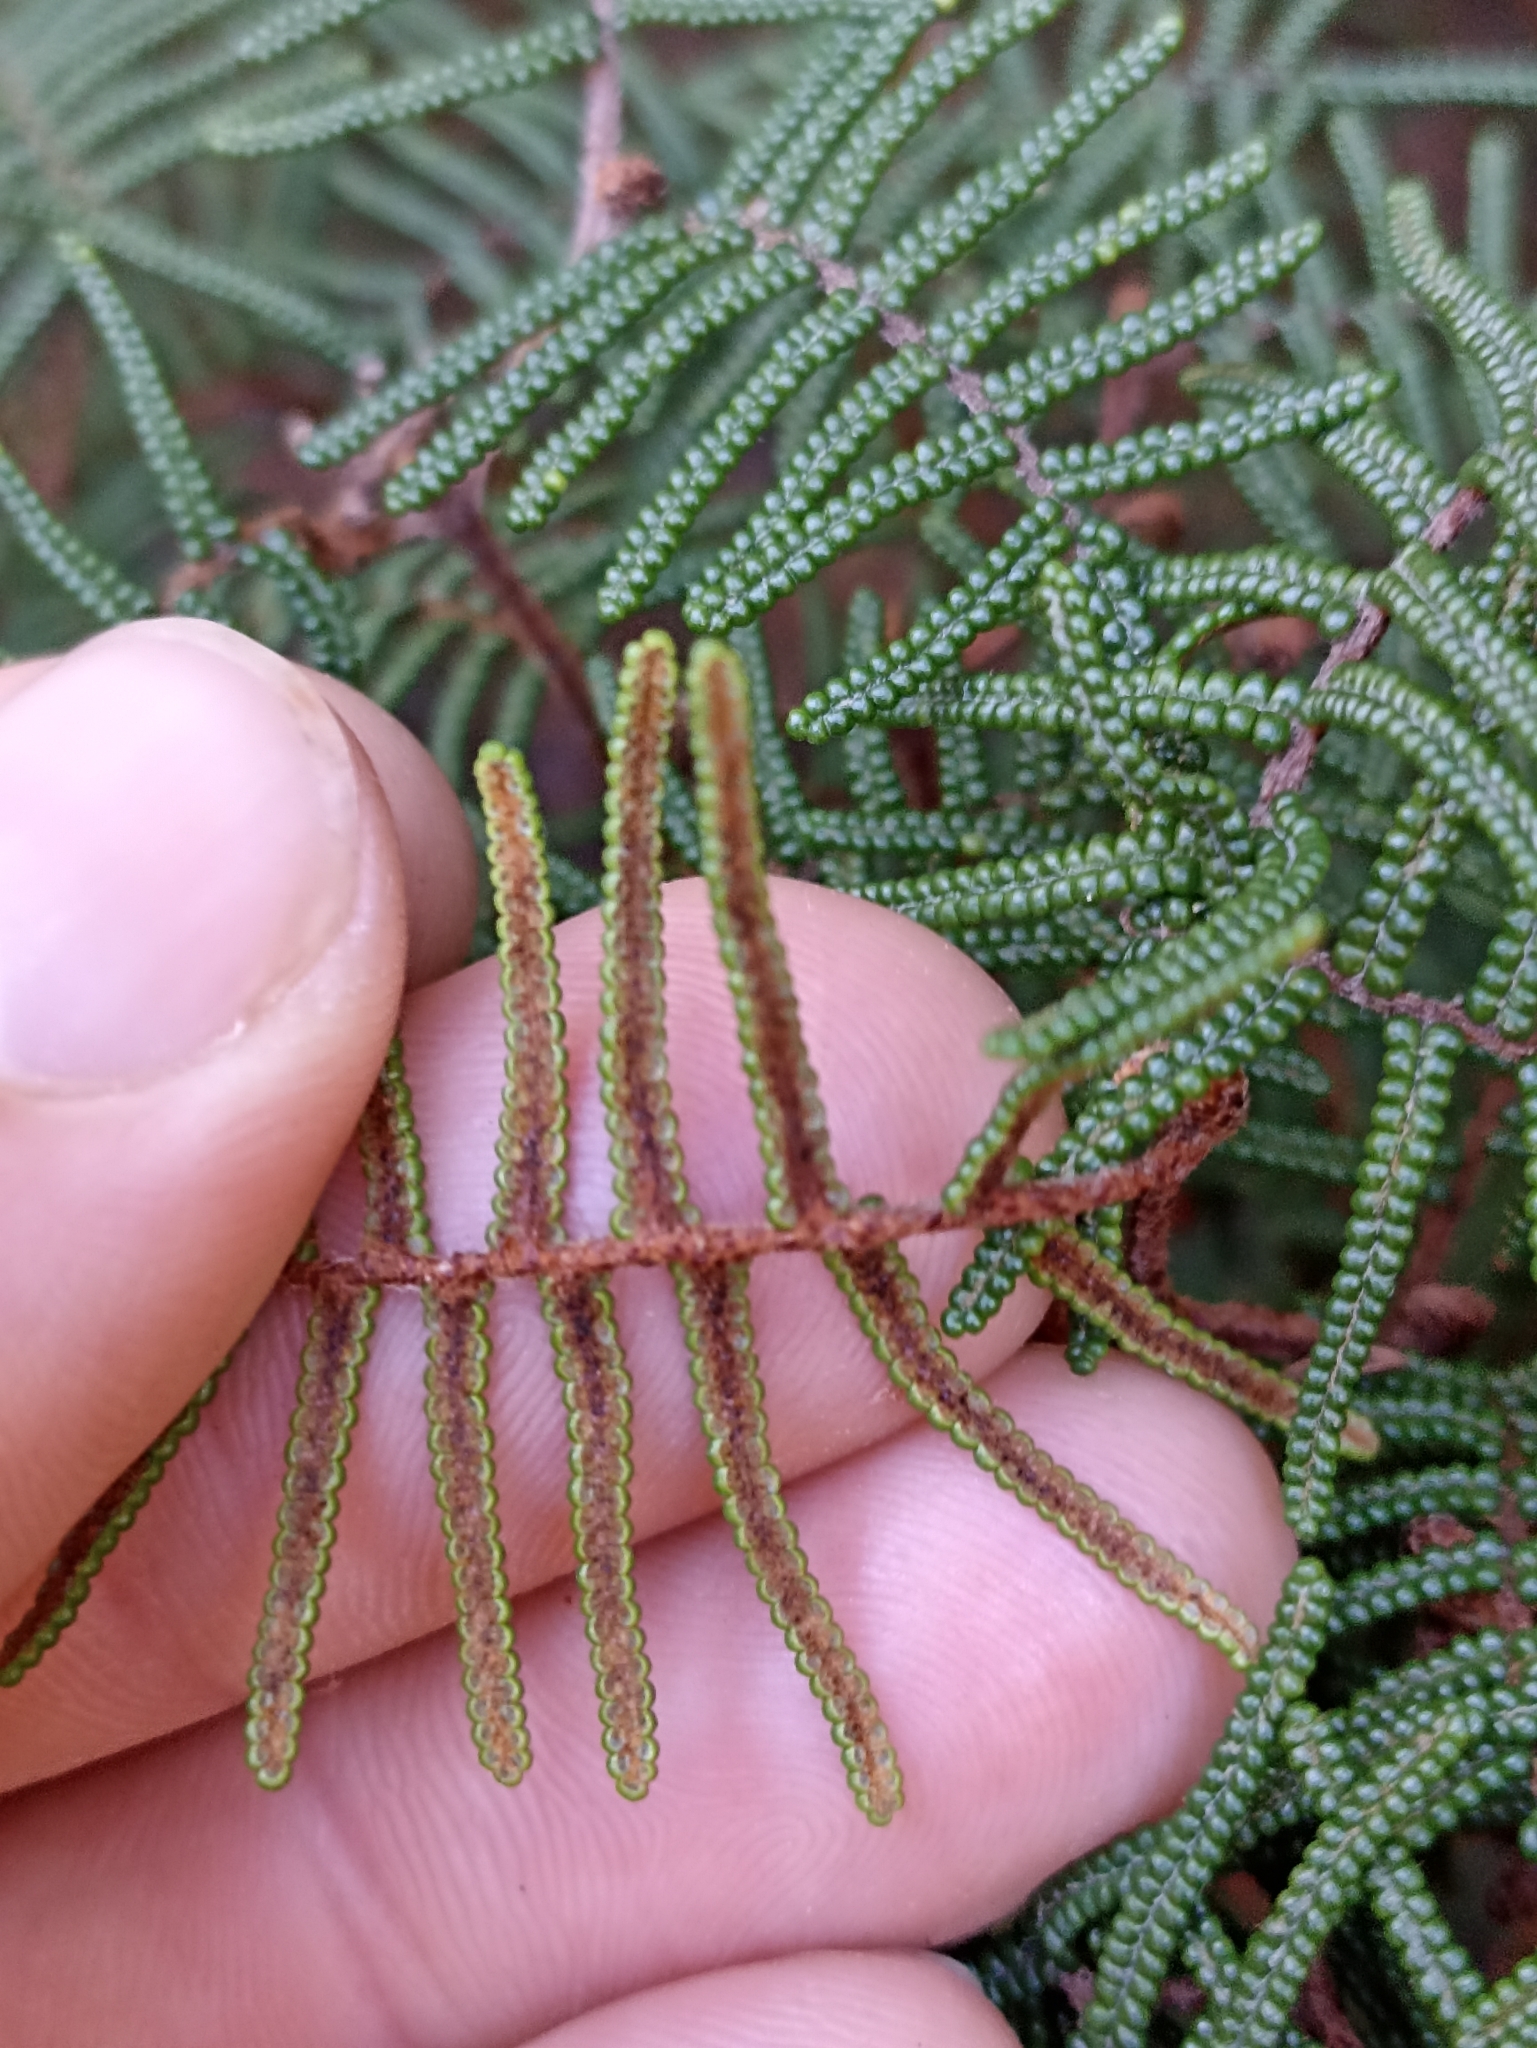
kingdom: Plantae
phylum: Tracheophyta
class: Polypodiopsida
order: Gleicheniales
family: Gleicheniaceae
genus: Gleichenia
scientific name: Gleichenia alpina
